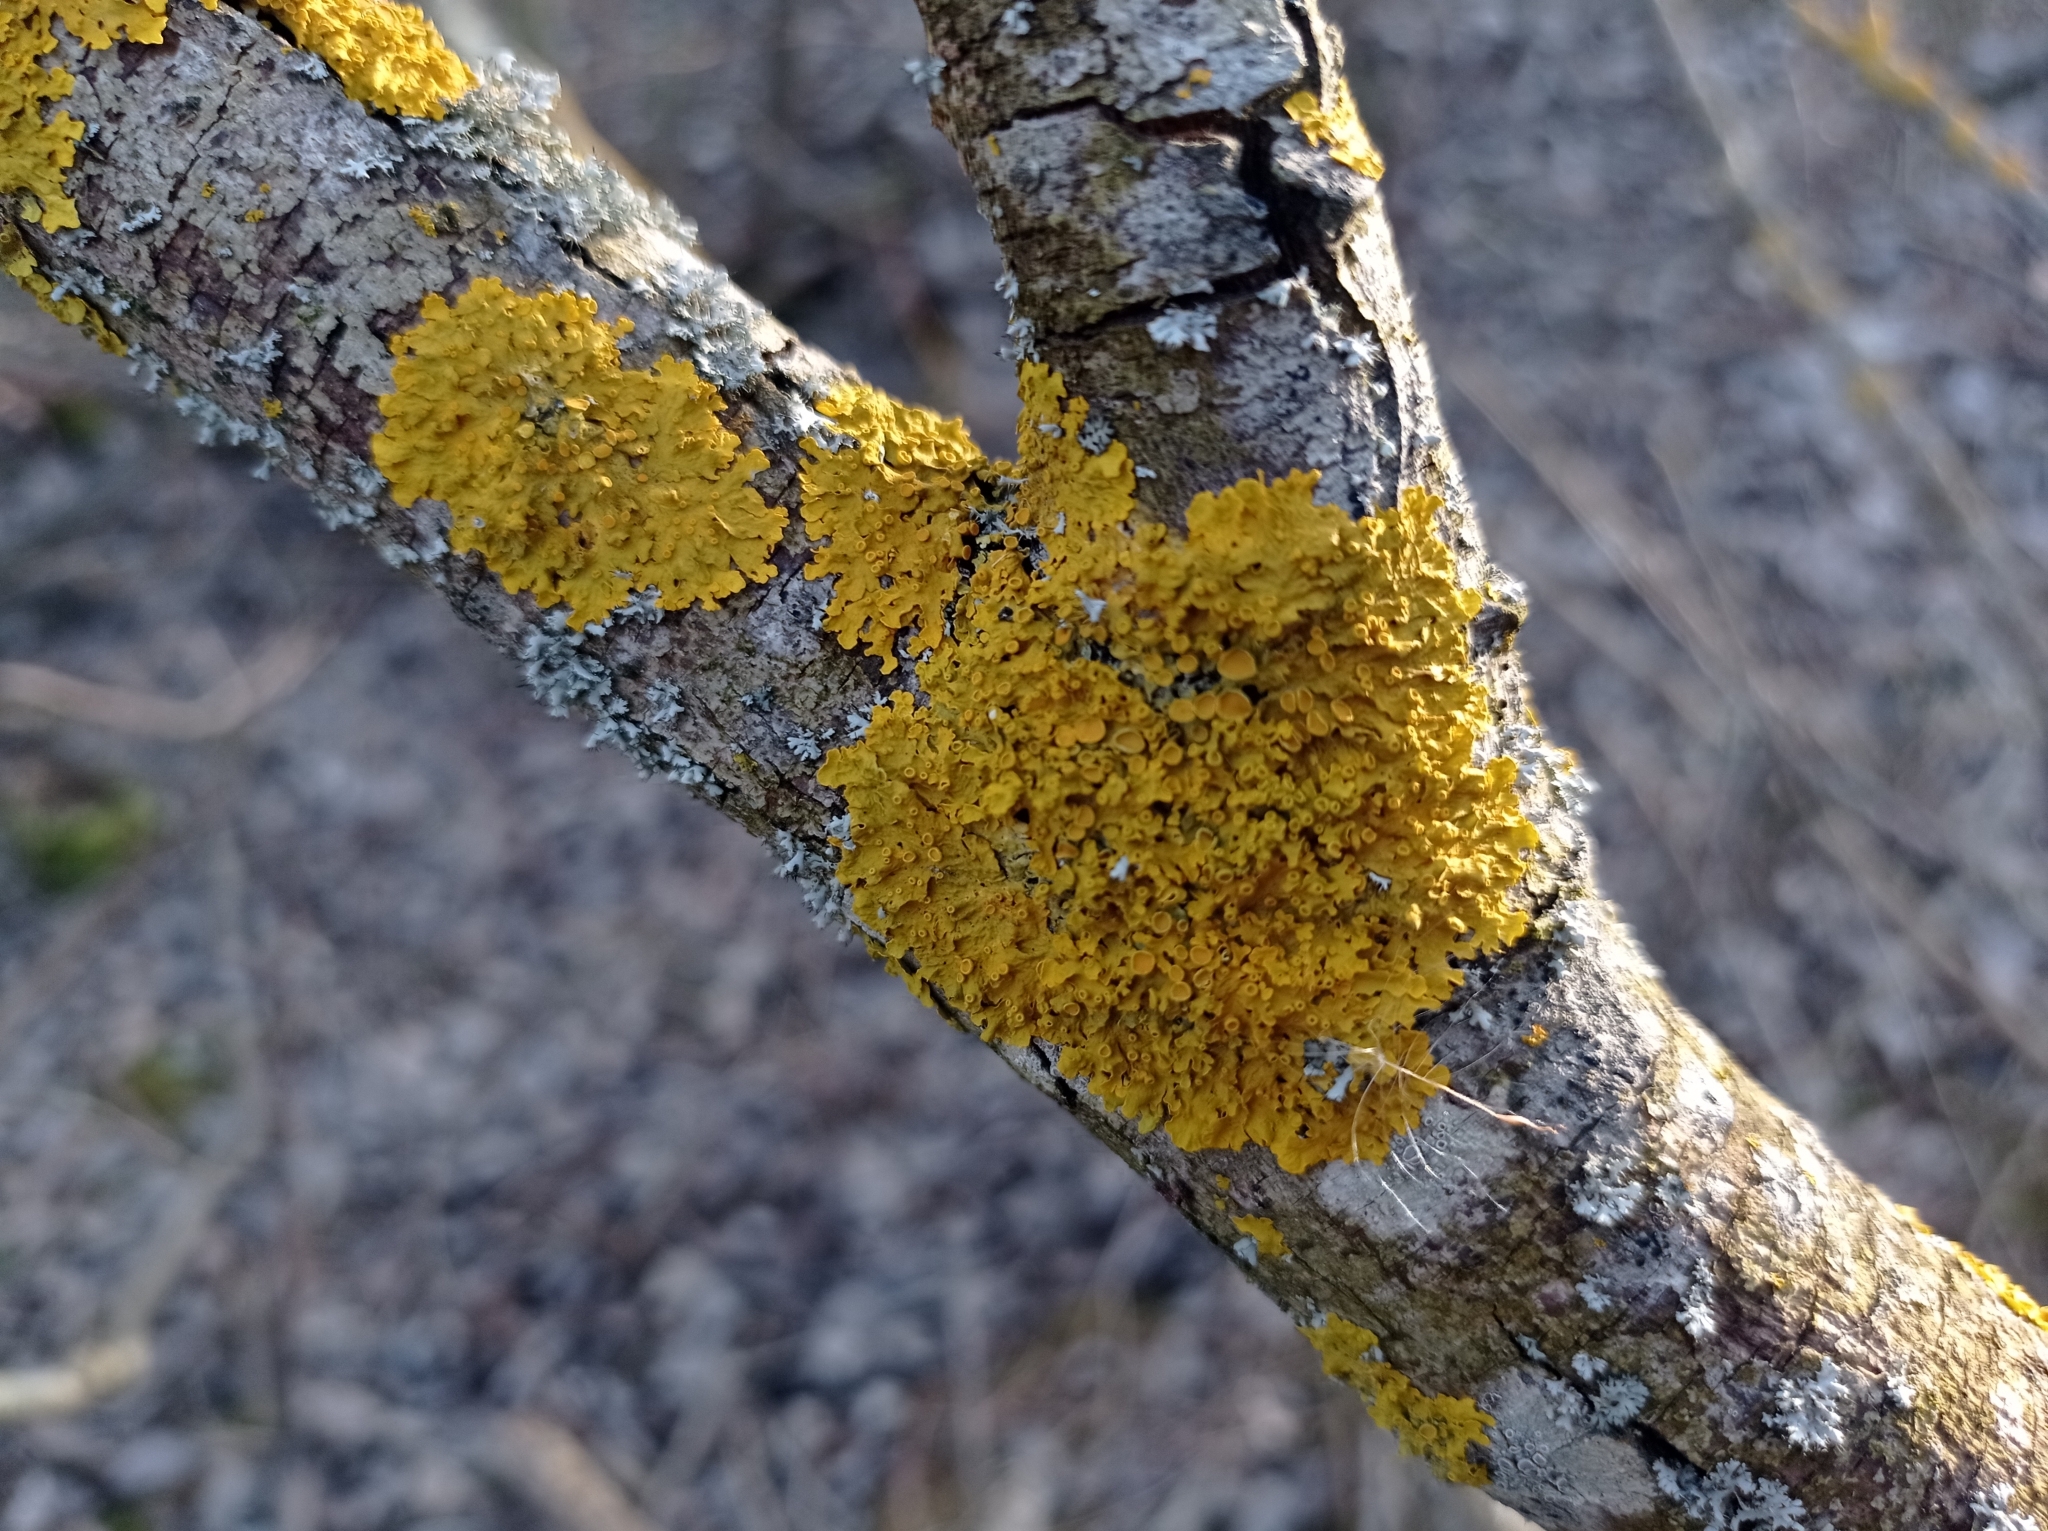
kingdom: Fungi
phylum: Ascomycota
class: Lecanoromycetes
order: Teloschistales
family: Teloschistaceae
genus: Xanthoria
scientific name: Xanthoria parietina
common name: Common orange lichen
